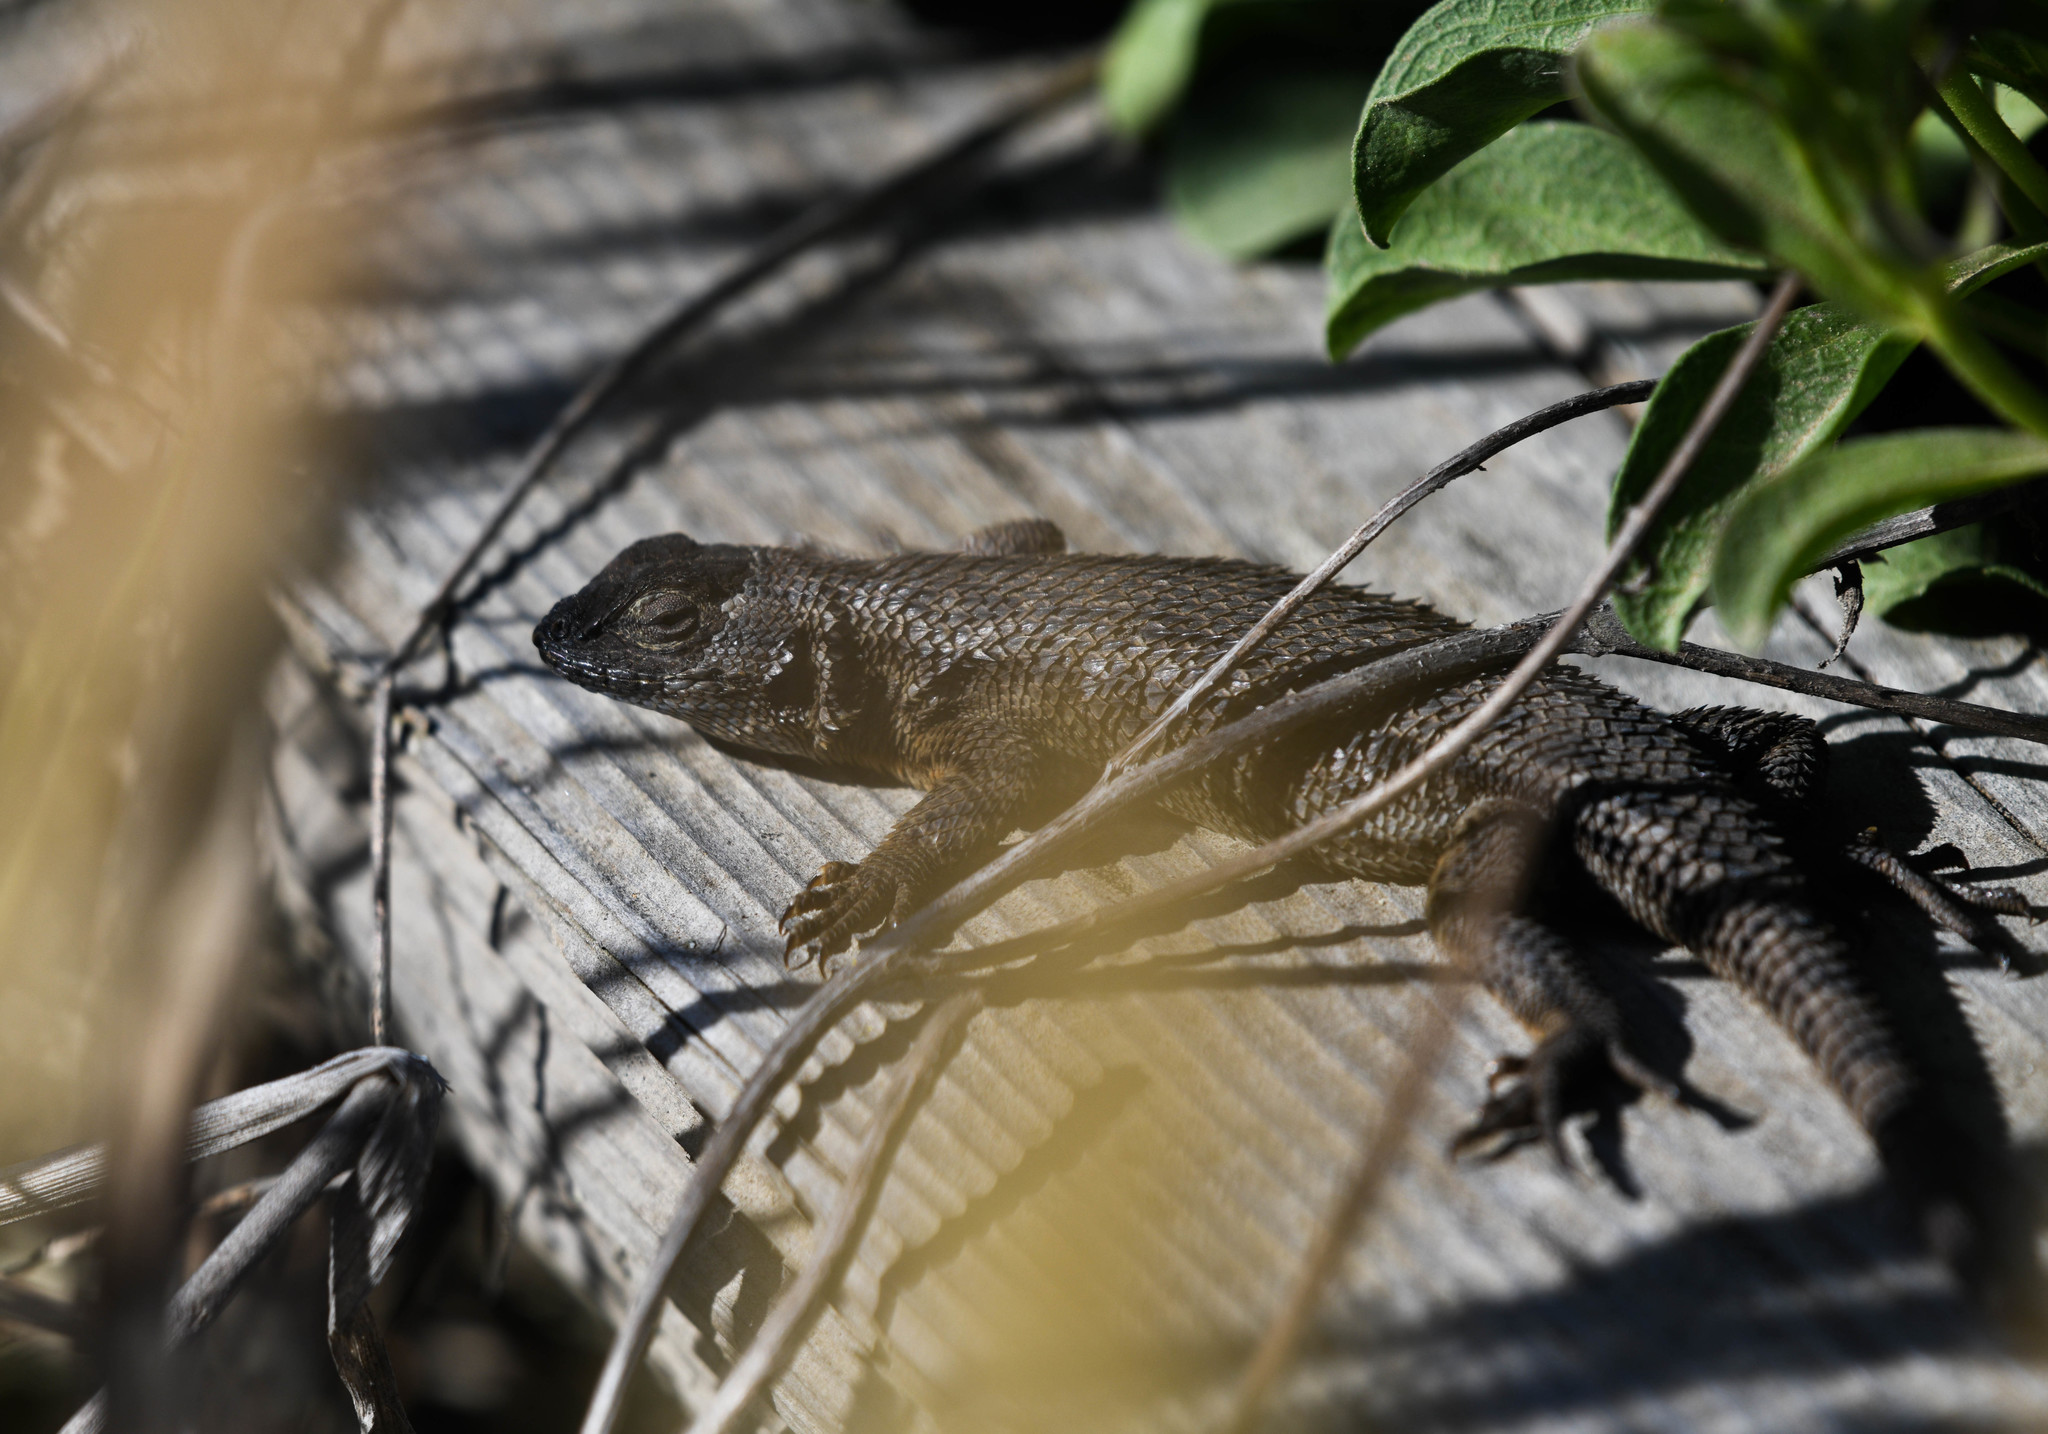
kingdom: Animalia
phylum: Chordata
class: Squamata
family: Phrynosomatidae
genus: Sceloporus
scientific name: Sceloporus occidentalis
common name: Western fence lizard
